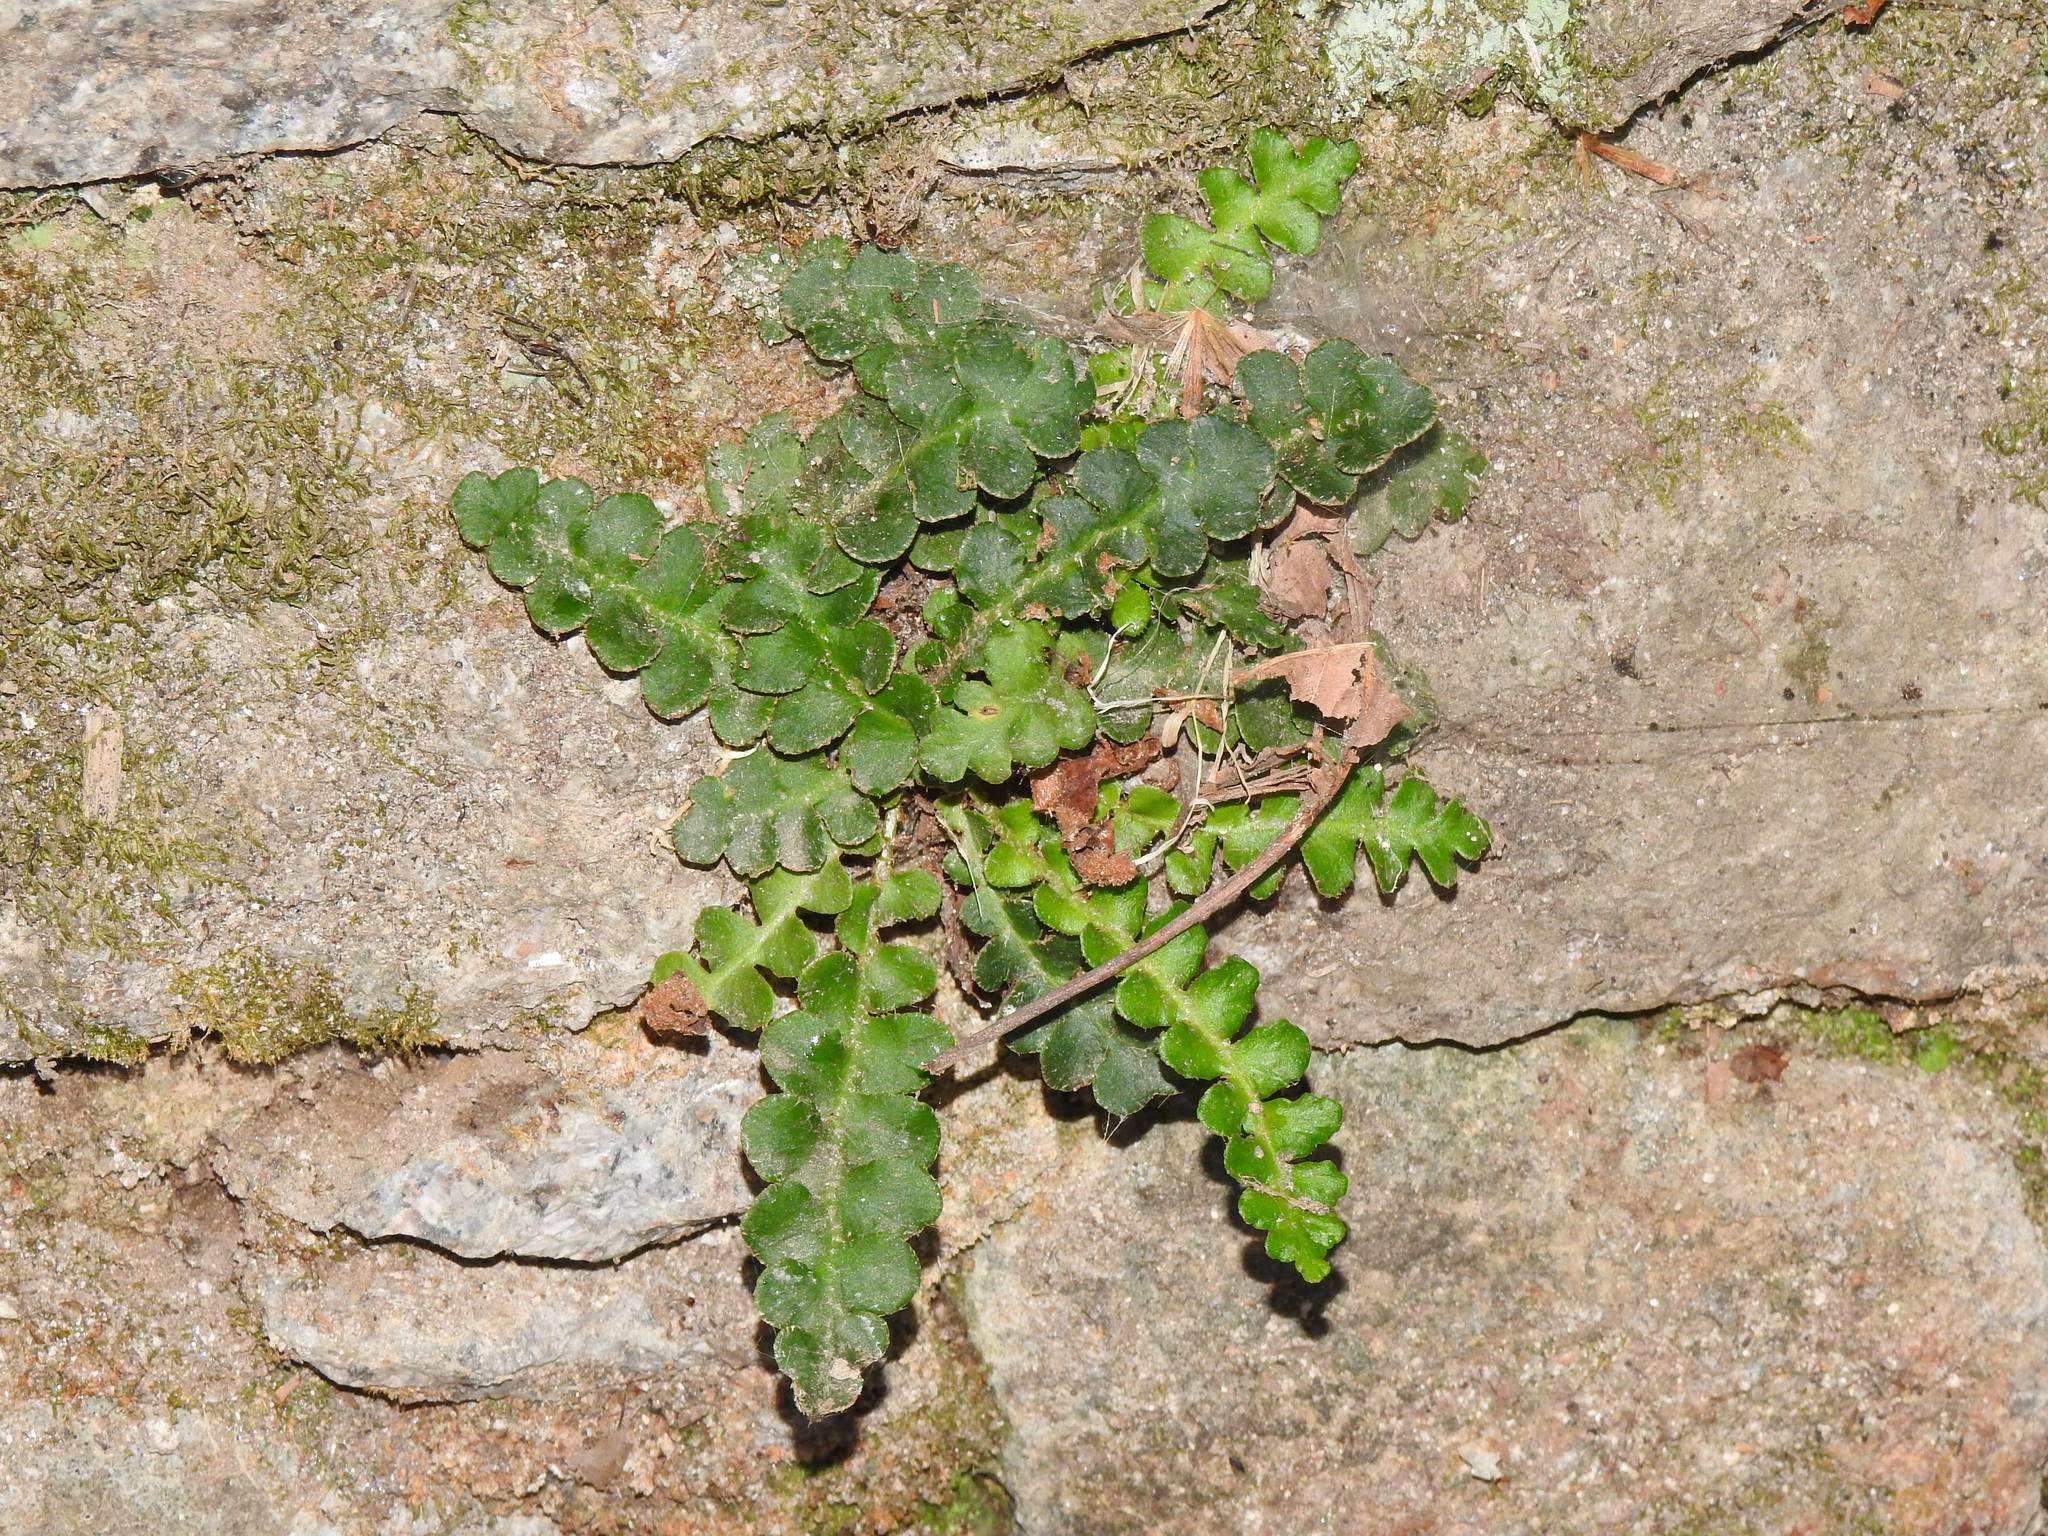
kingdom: Plantae
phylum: Tracheophyta
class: Polypodiopsida
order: Polypodiales
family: Aspleniaceae
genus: Asplenium
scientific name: Asplenium ceterach
